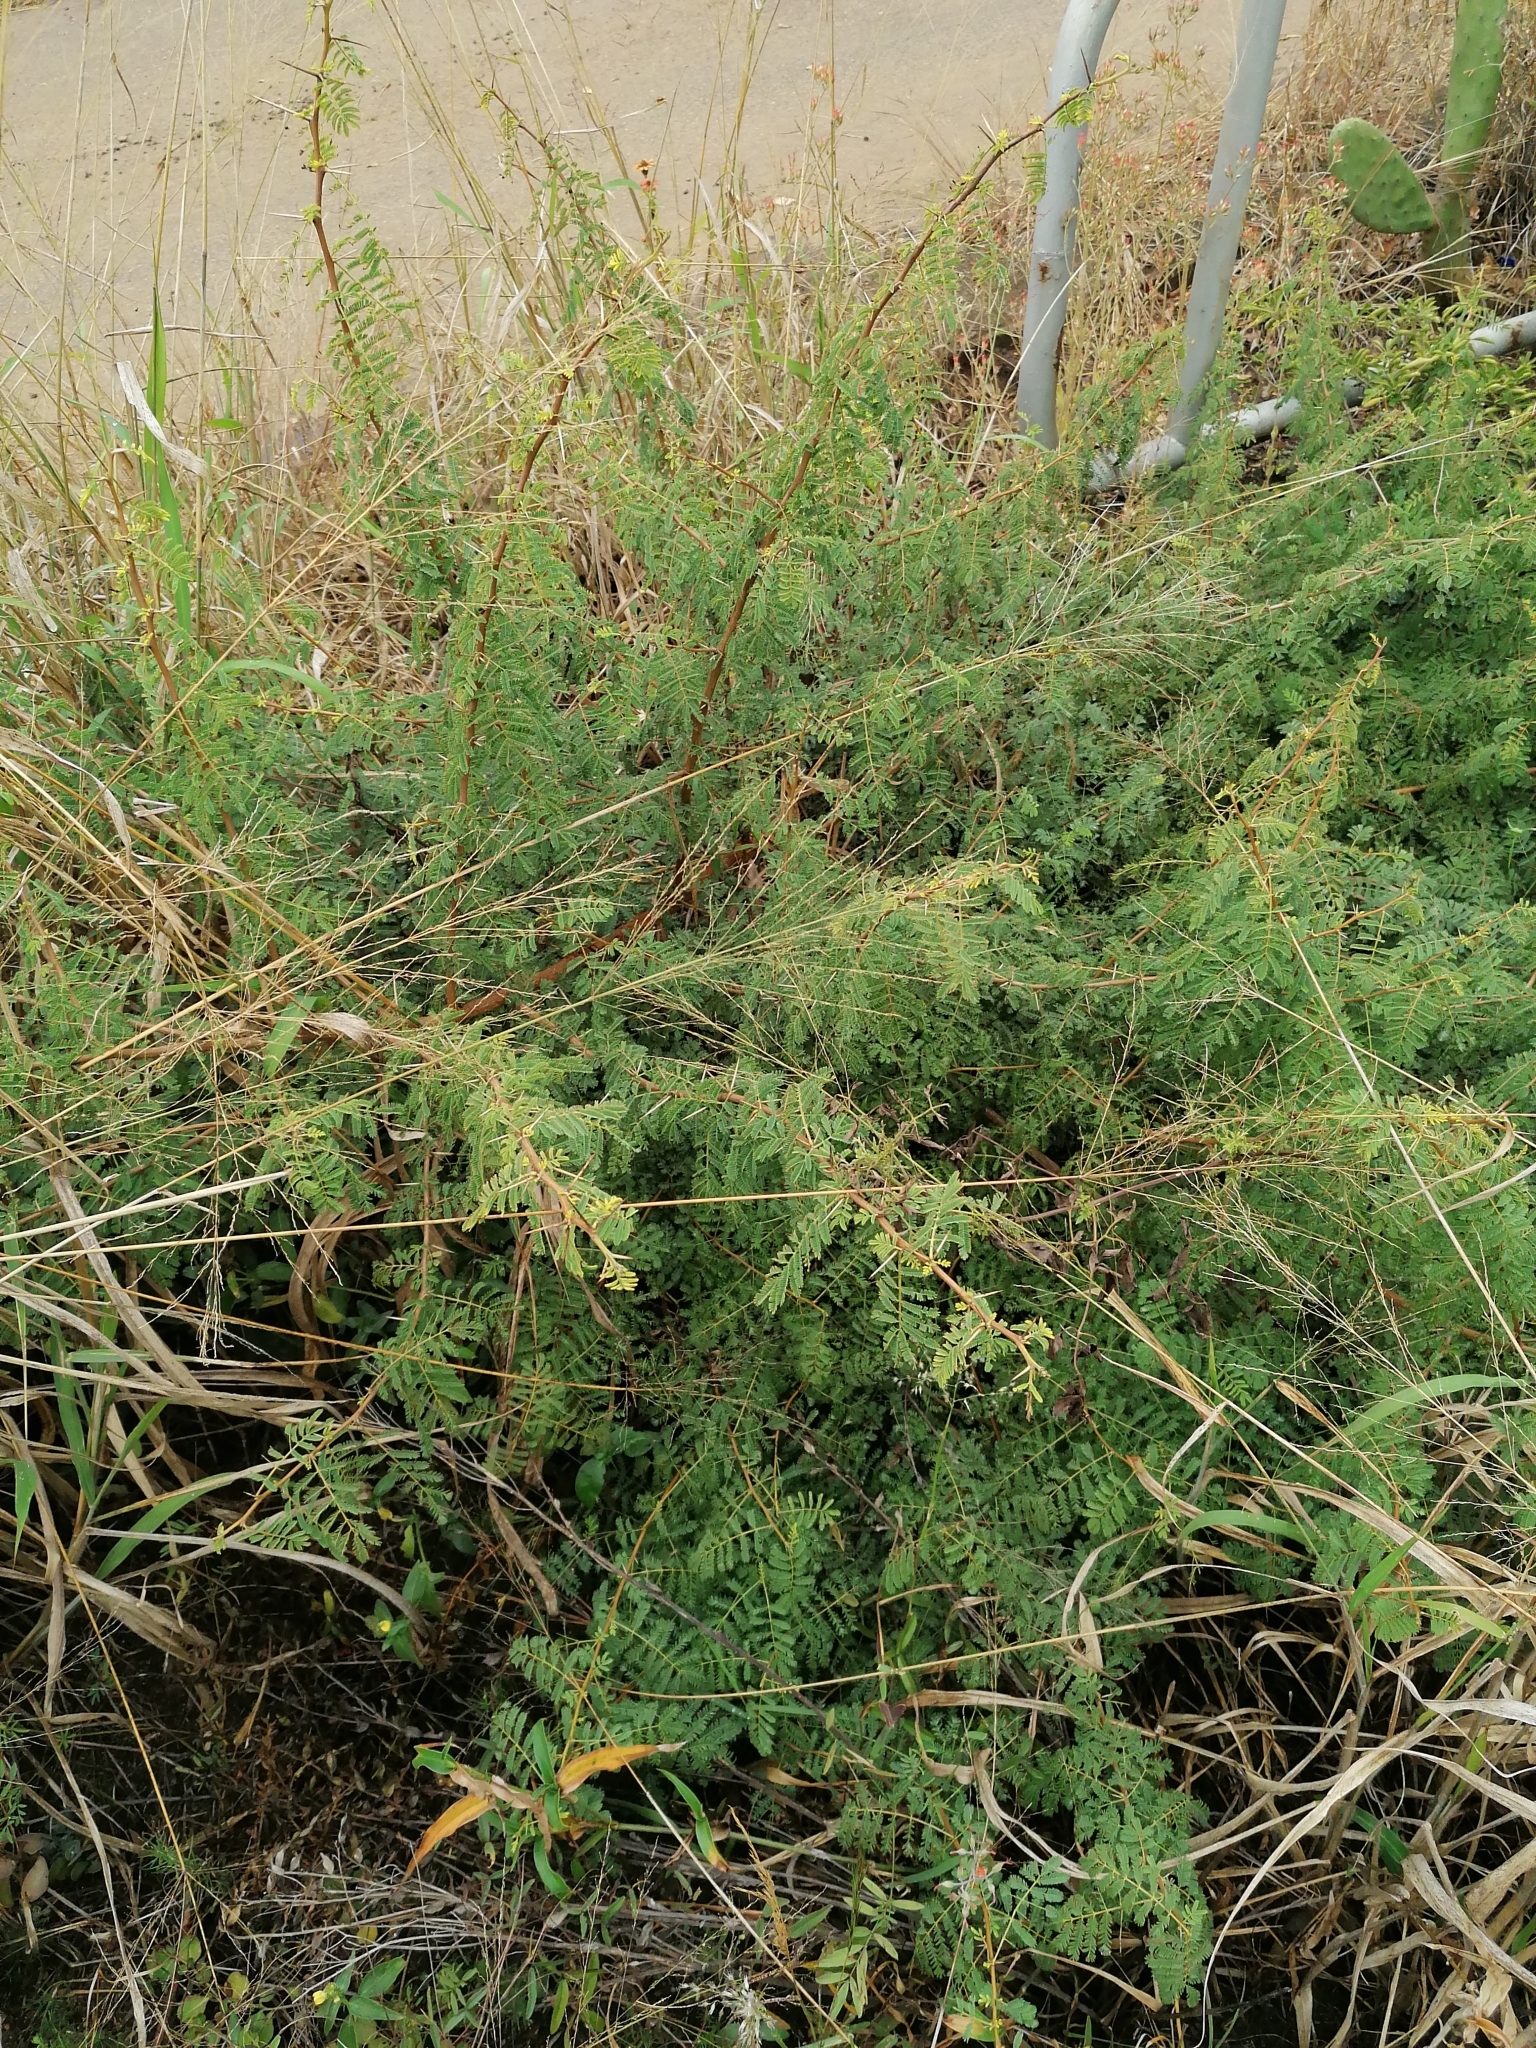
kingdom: Plantae
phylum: Tracheophyta
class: Magnoliopsida
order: Fabales
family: Fabaceae
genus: Vachellia
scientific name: Vachellia karroo
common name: Sweet thorn
